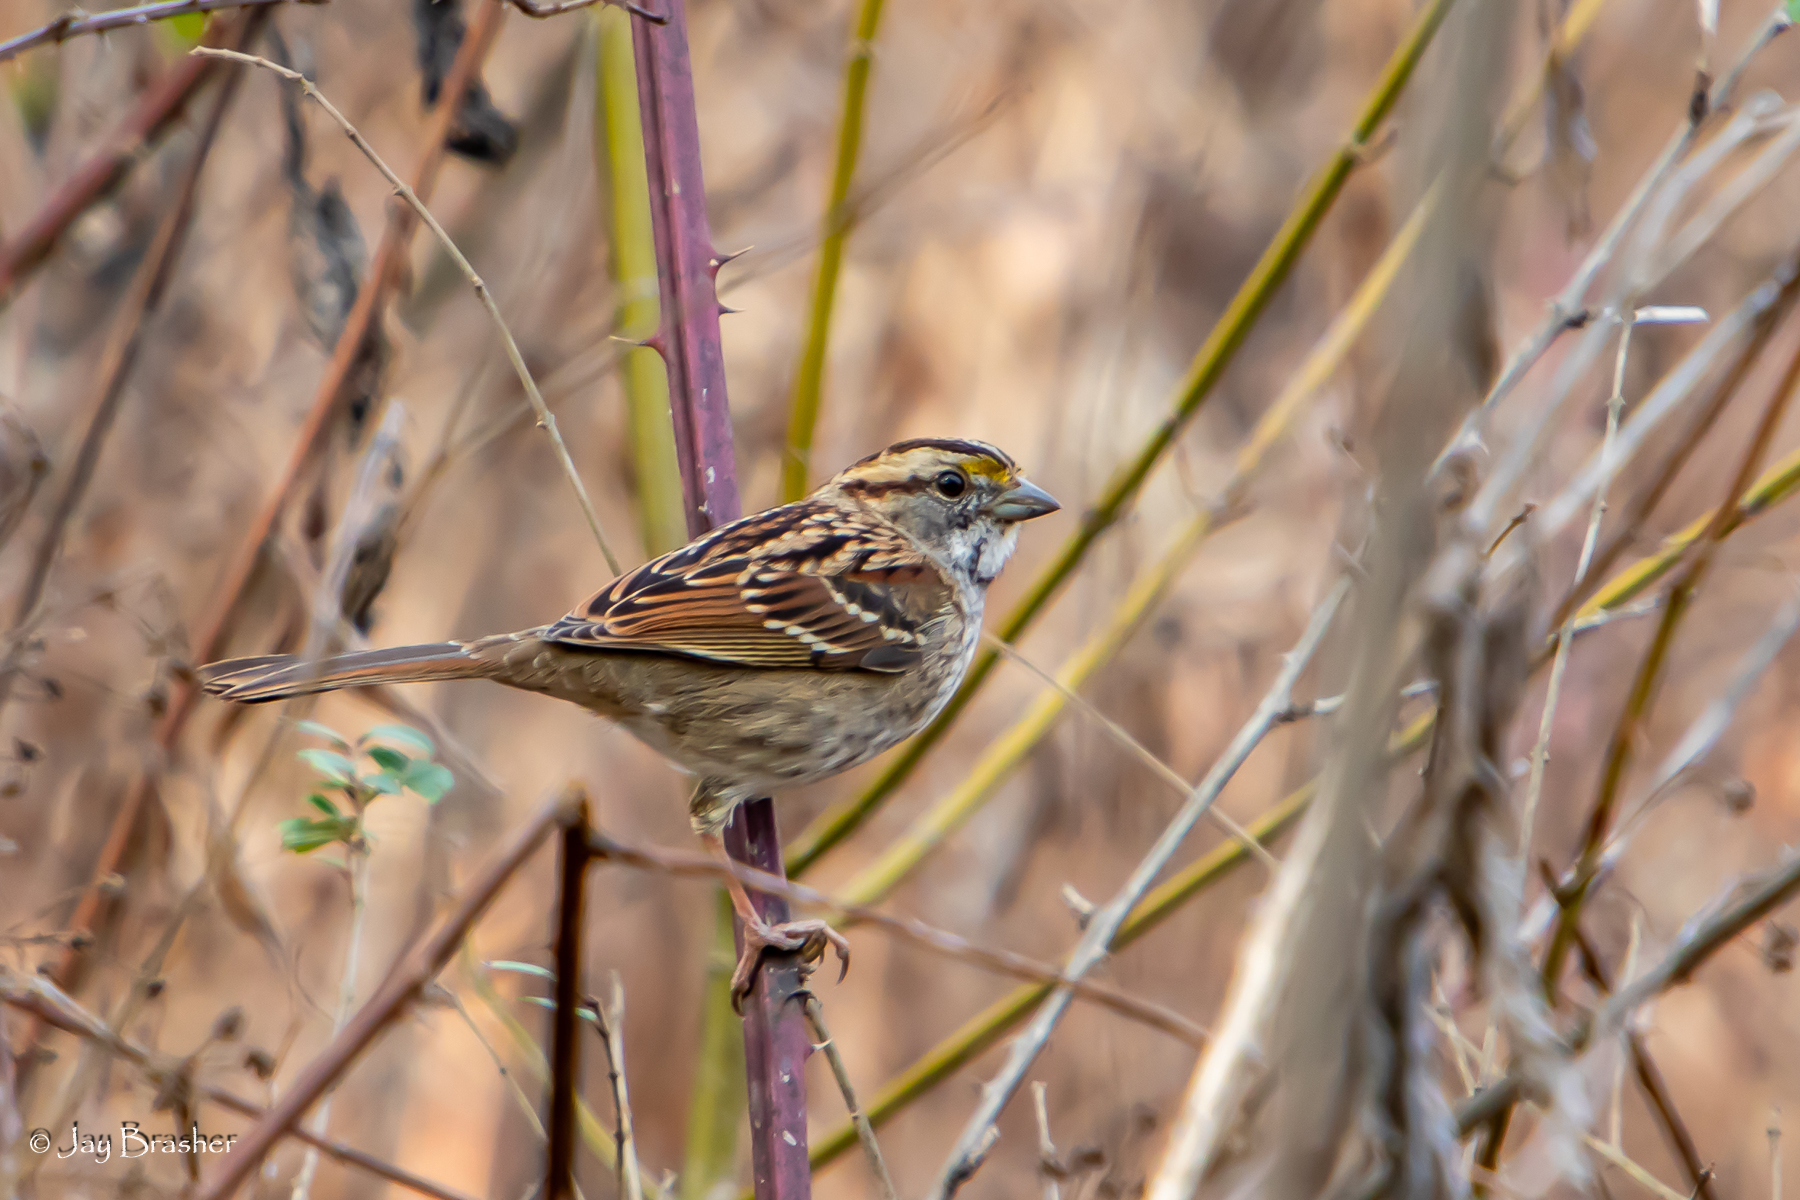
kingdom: Animalia
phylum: Chordata
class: Aves
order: Passeriformes
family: Passerellidae
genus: Zonotrichia
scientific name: Zonotrichia albicollis
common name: White-throated sparrow
